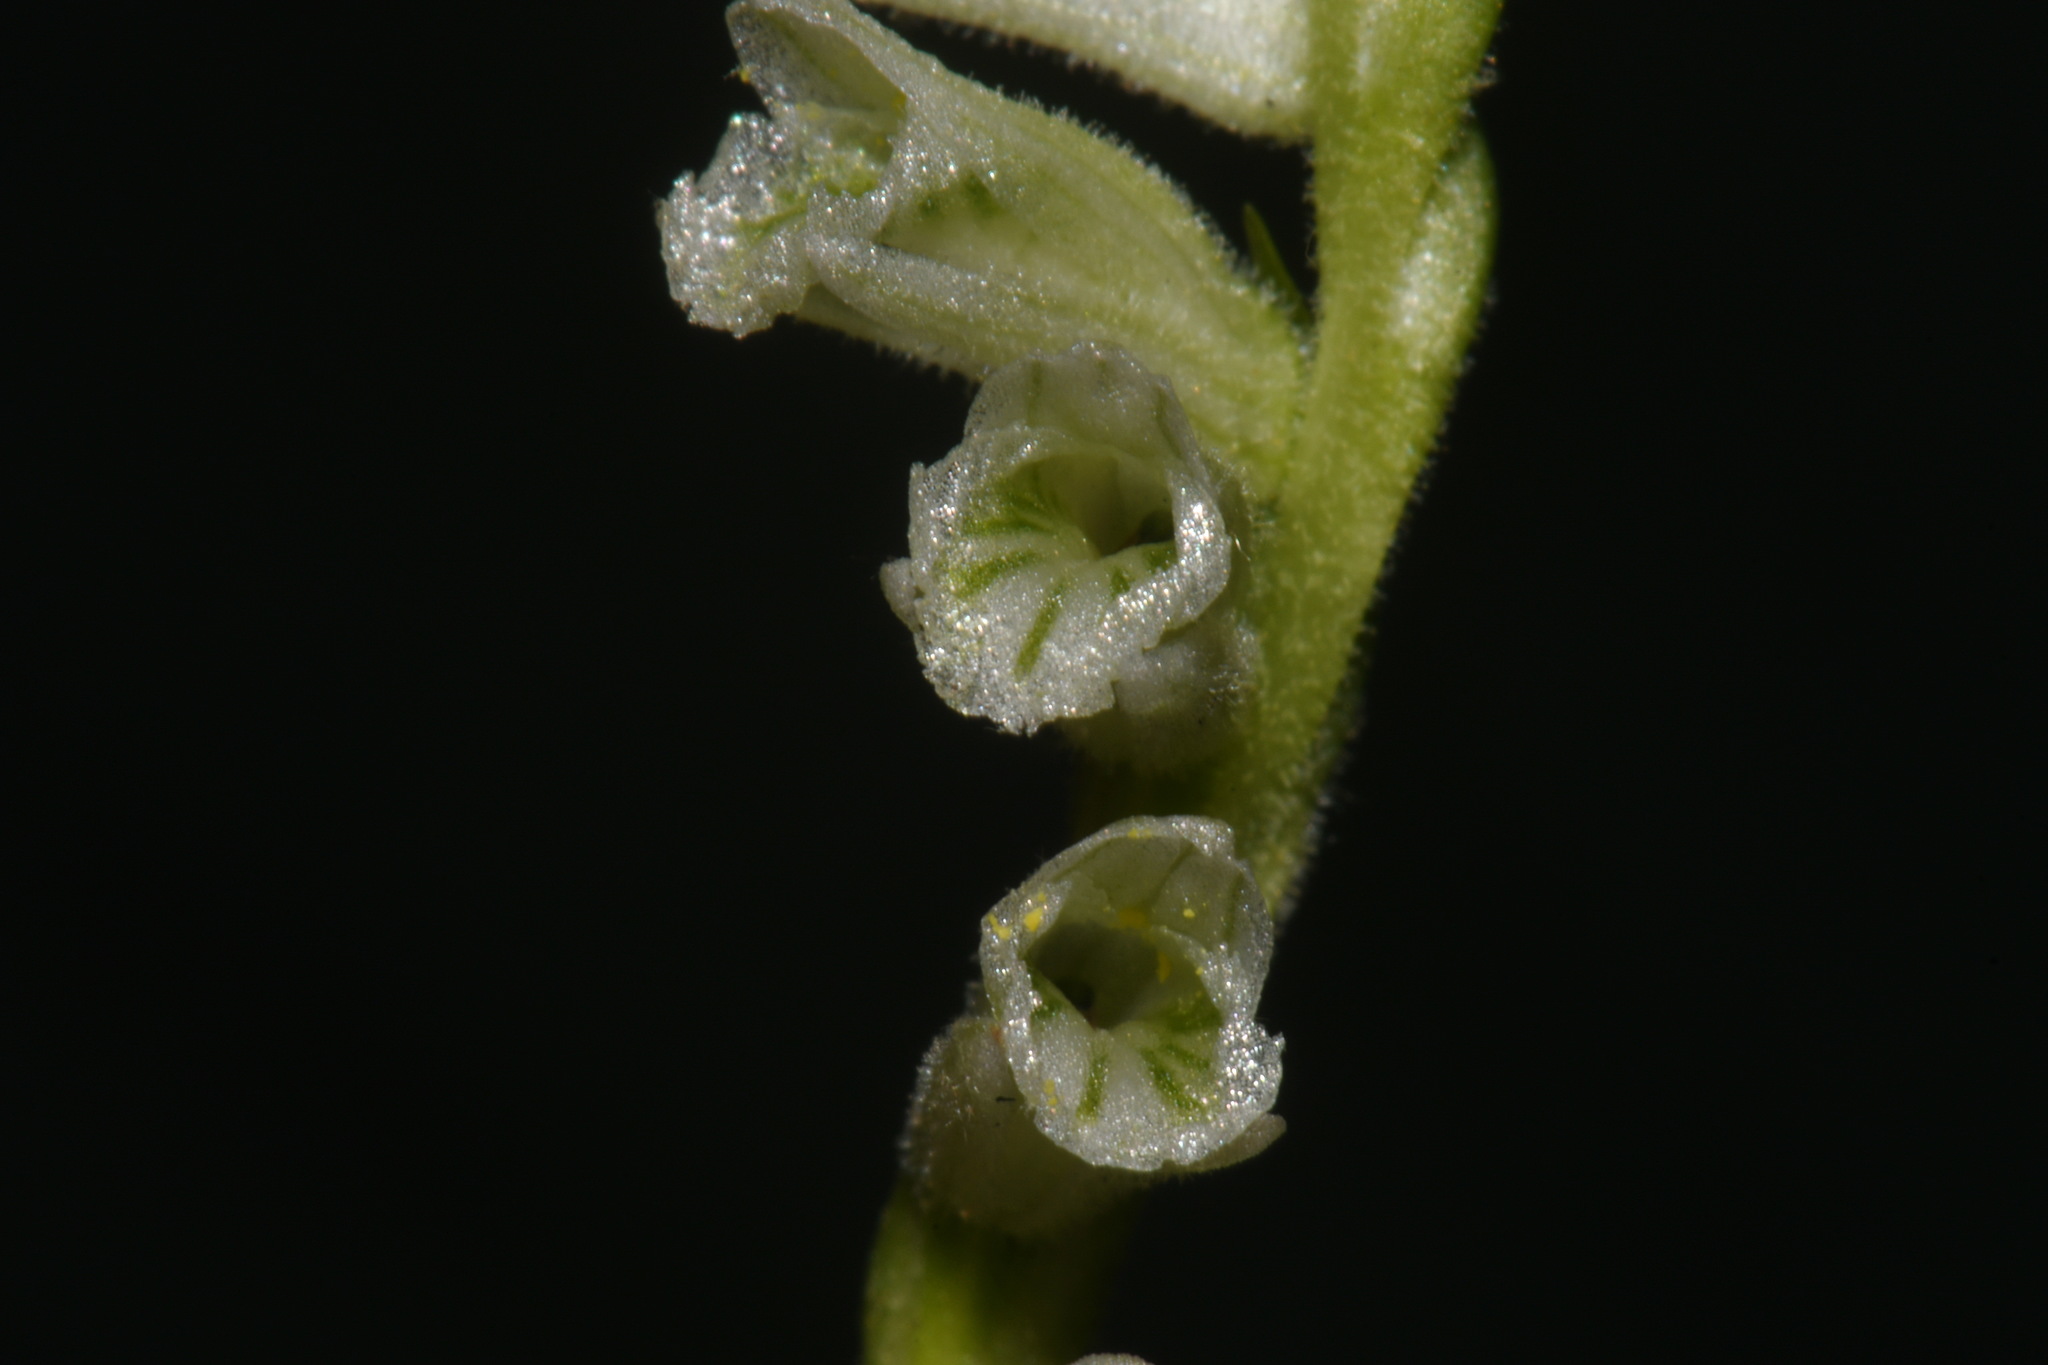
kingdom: Plantae
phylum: Tracheophyta
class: Liliopsida
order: Asparagales
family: Orchidaceae
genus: Spiranthes
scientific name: Spiranthes praecox
